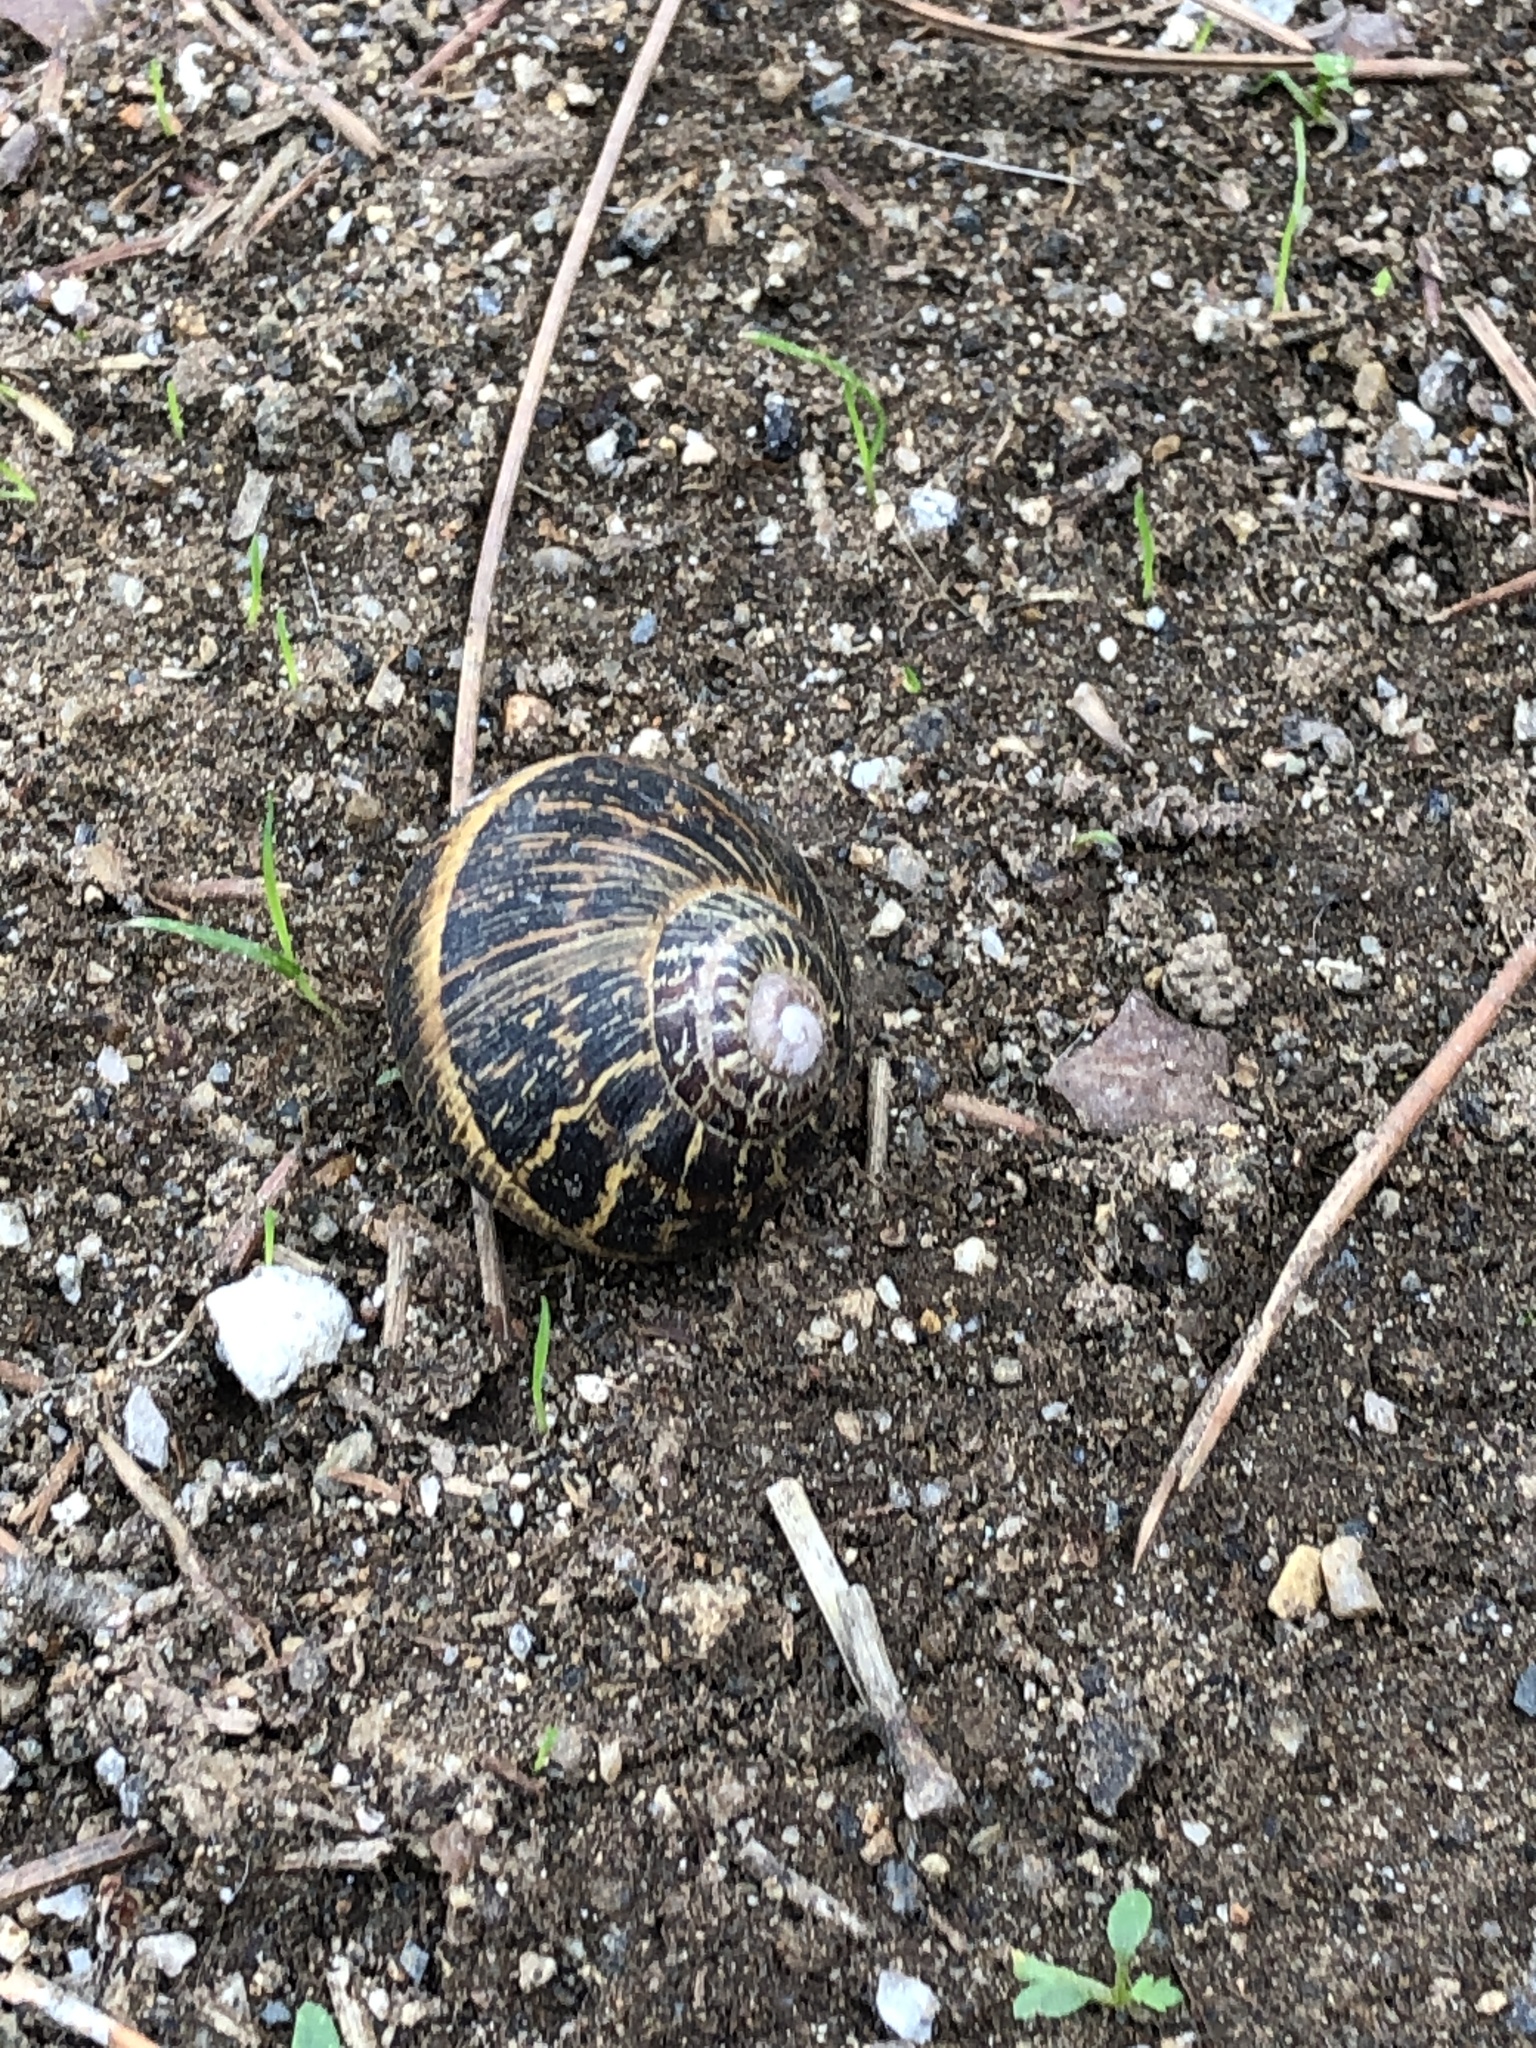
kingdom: Animalia
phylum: Mollusca
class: Gastropoda
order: Stylommatophora
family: Helicidae
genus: Cornu
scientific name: Cornu aspersum
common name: Brown garden snail
